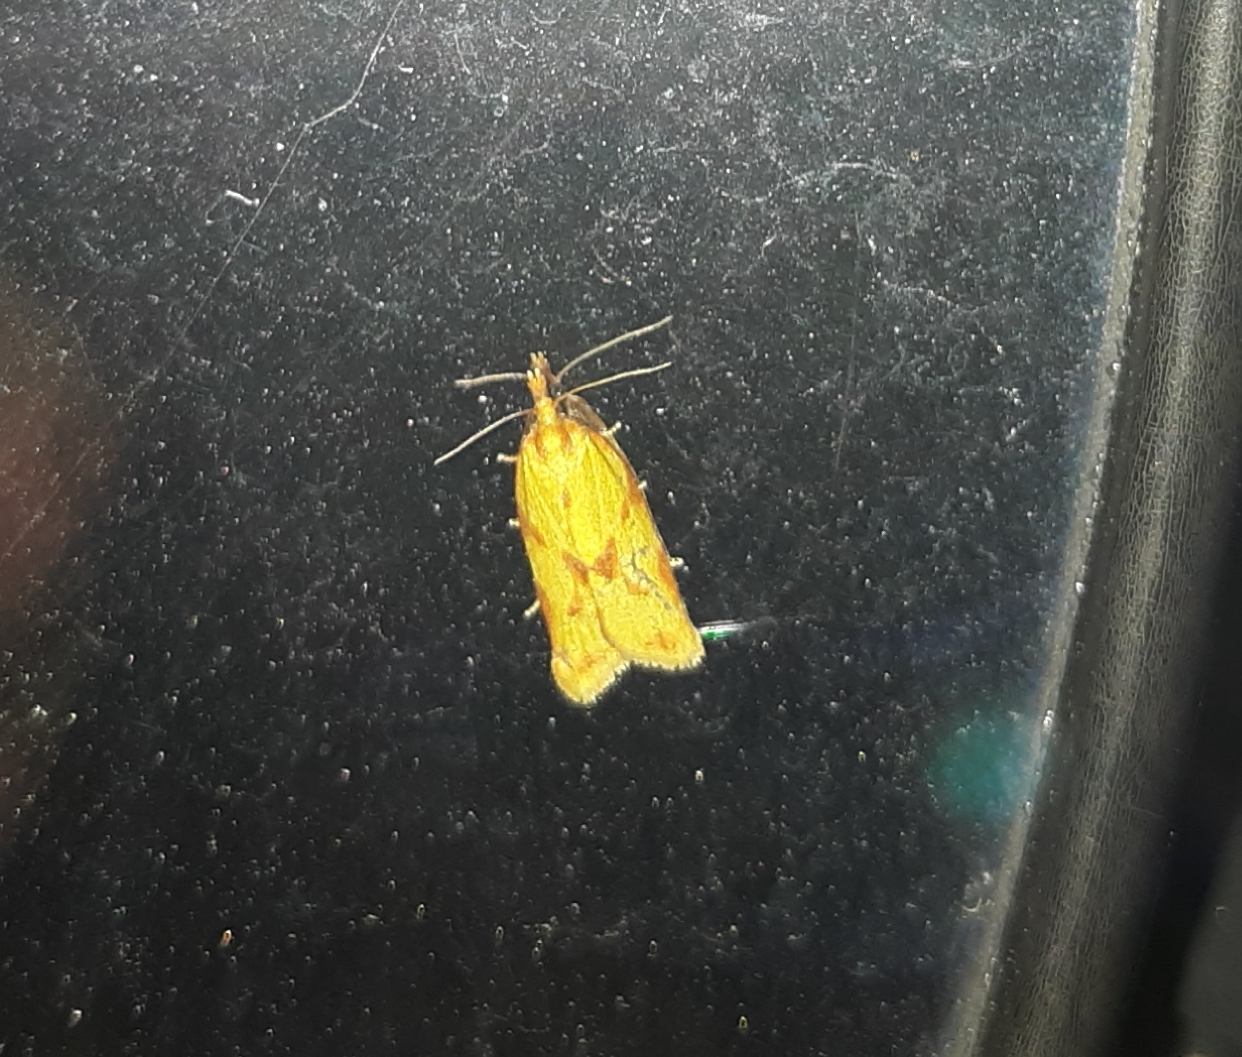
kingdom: Animalia
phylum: Arthropoda
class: Insecta
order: Lepidoptera
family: Tortricidae
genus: Sparganothis
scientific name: Sparganothis sulfureana
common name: Sparganothis fruitworm moth
